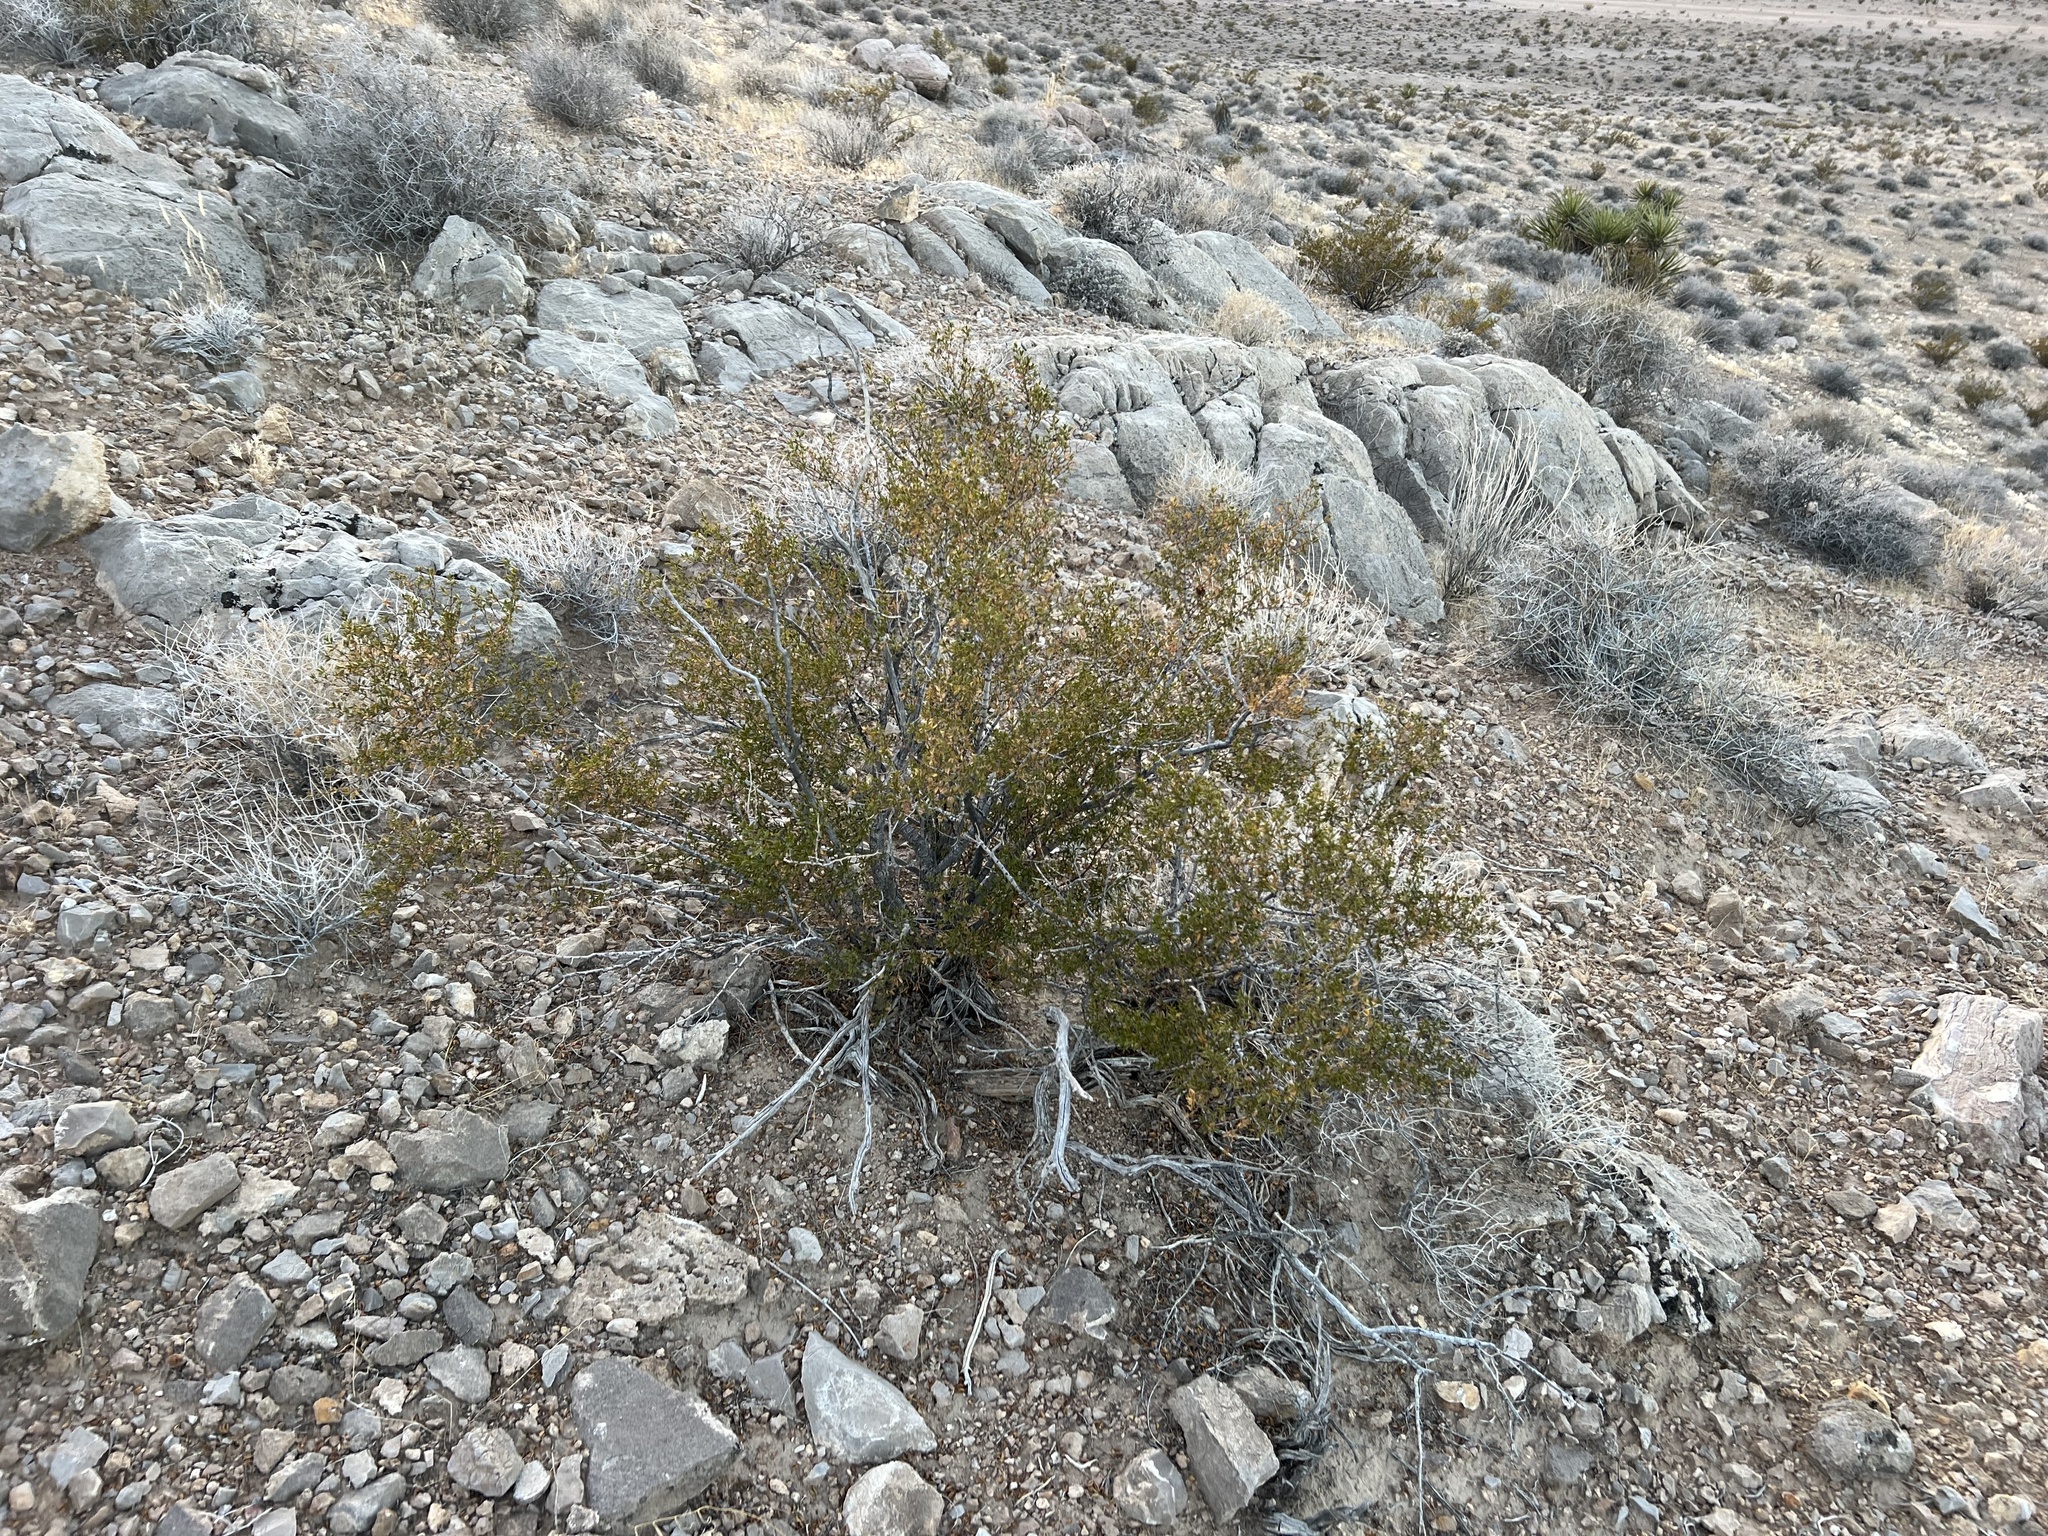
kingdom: Plantae
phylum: Tracheophyta
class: Magnoliopsida
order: Zygophyllales
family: Zygophyllaceae
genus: Larrea
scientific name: Larrea tridentata
